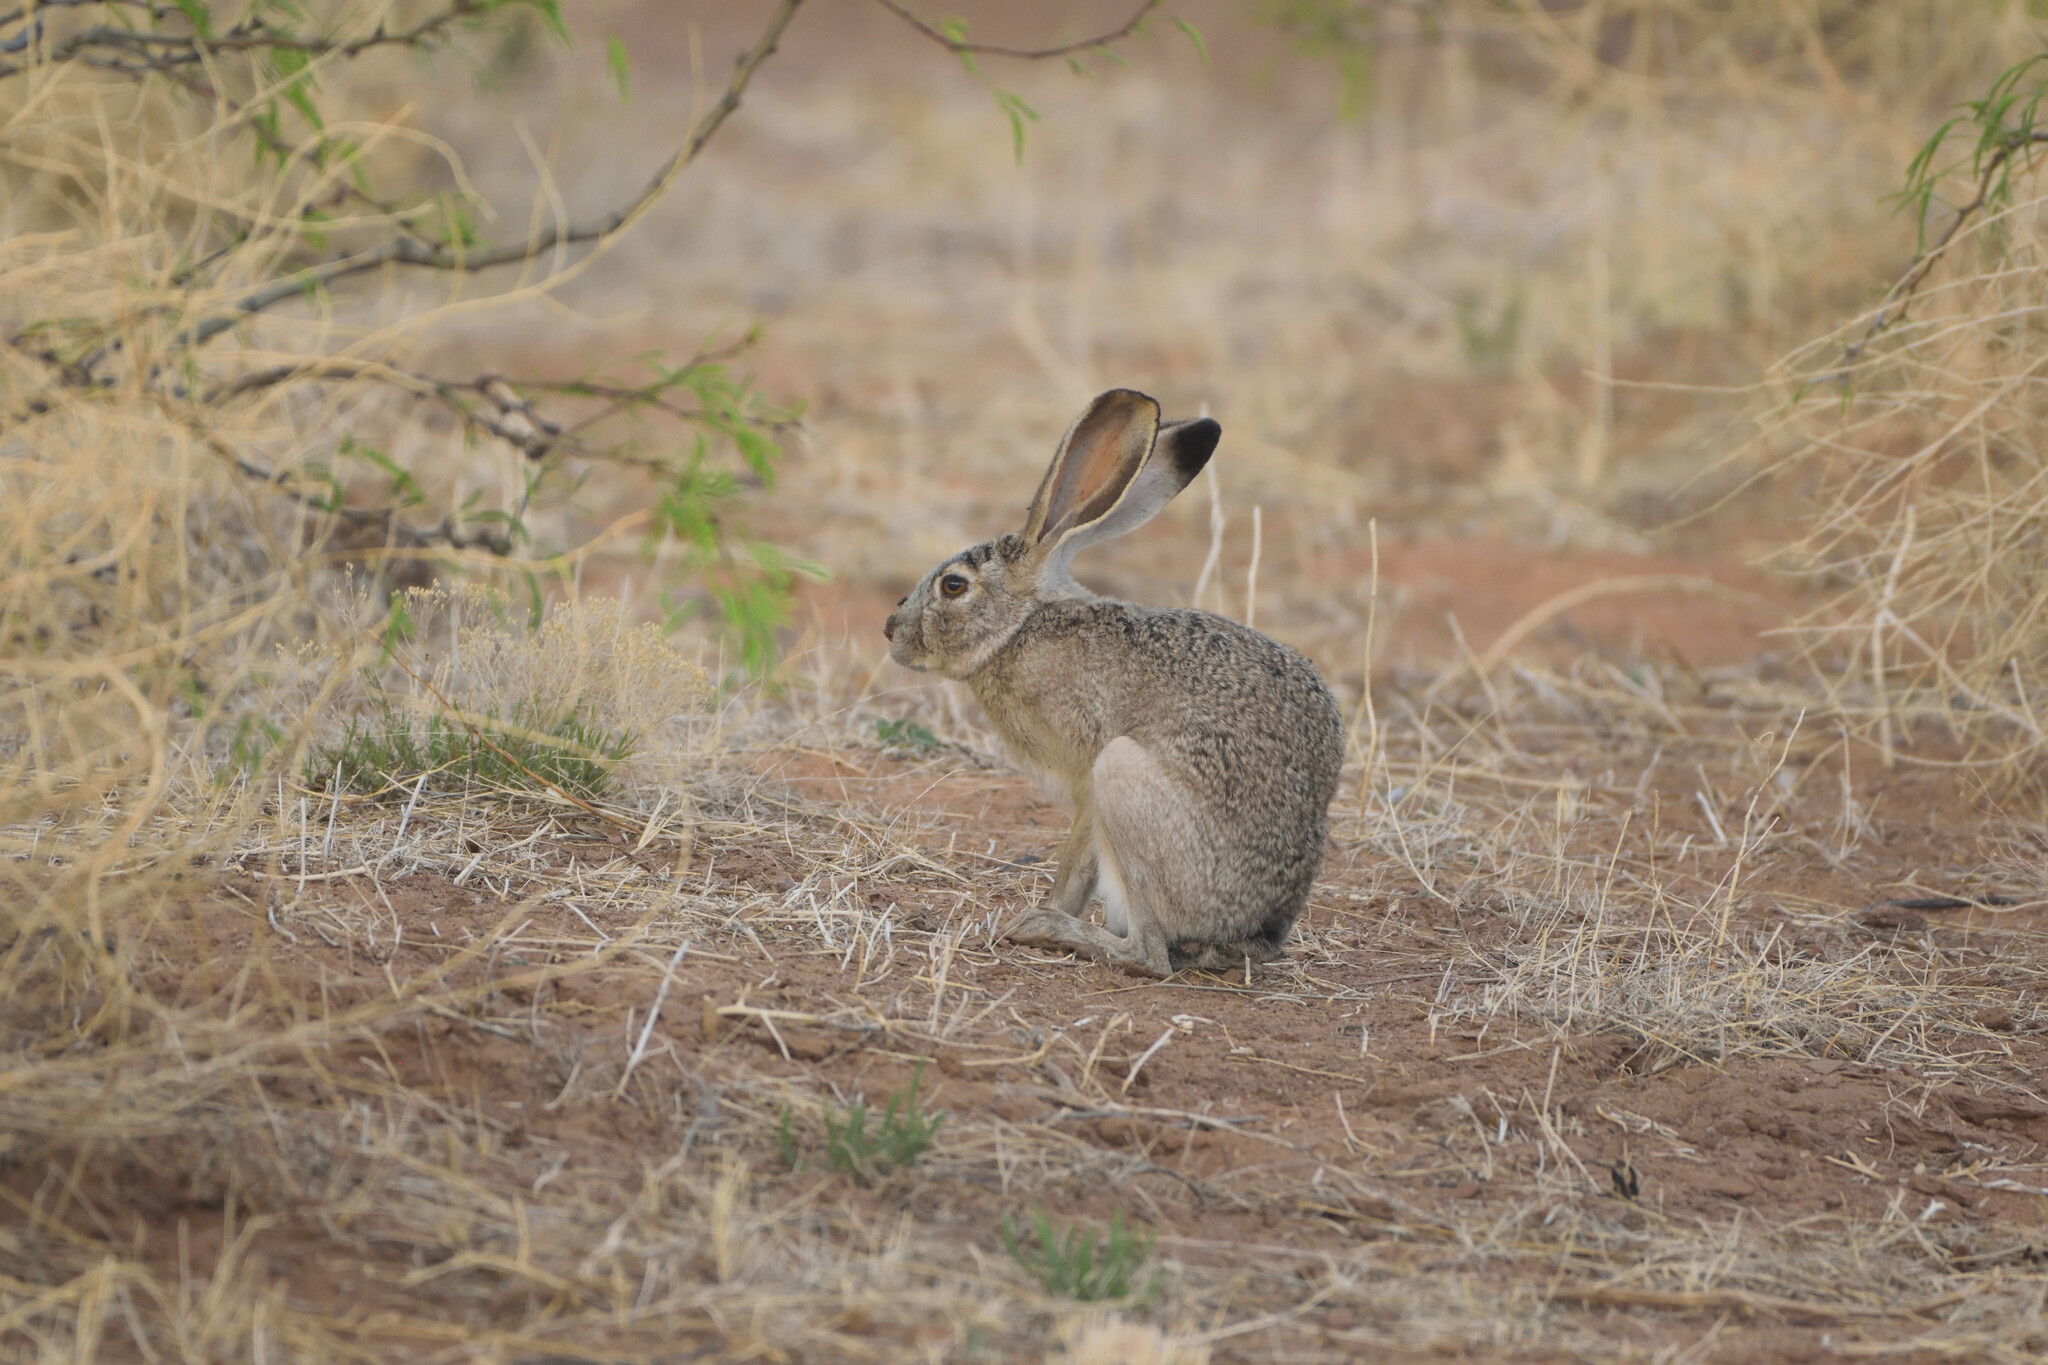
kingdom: Animalia
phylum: Chordata
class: Mammalia
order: Lagomorpha
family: Leporidae
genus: Lepus
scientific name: Lepus californicus
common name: Black-tailed jackrabbit
